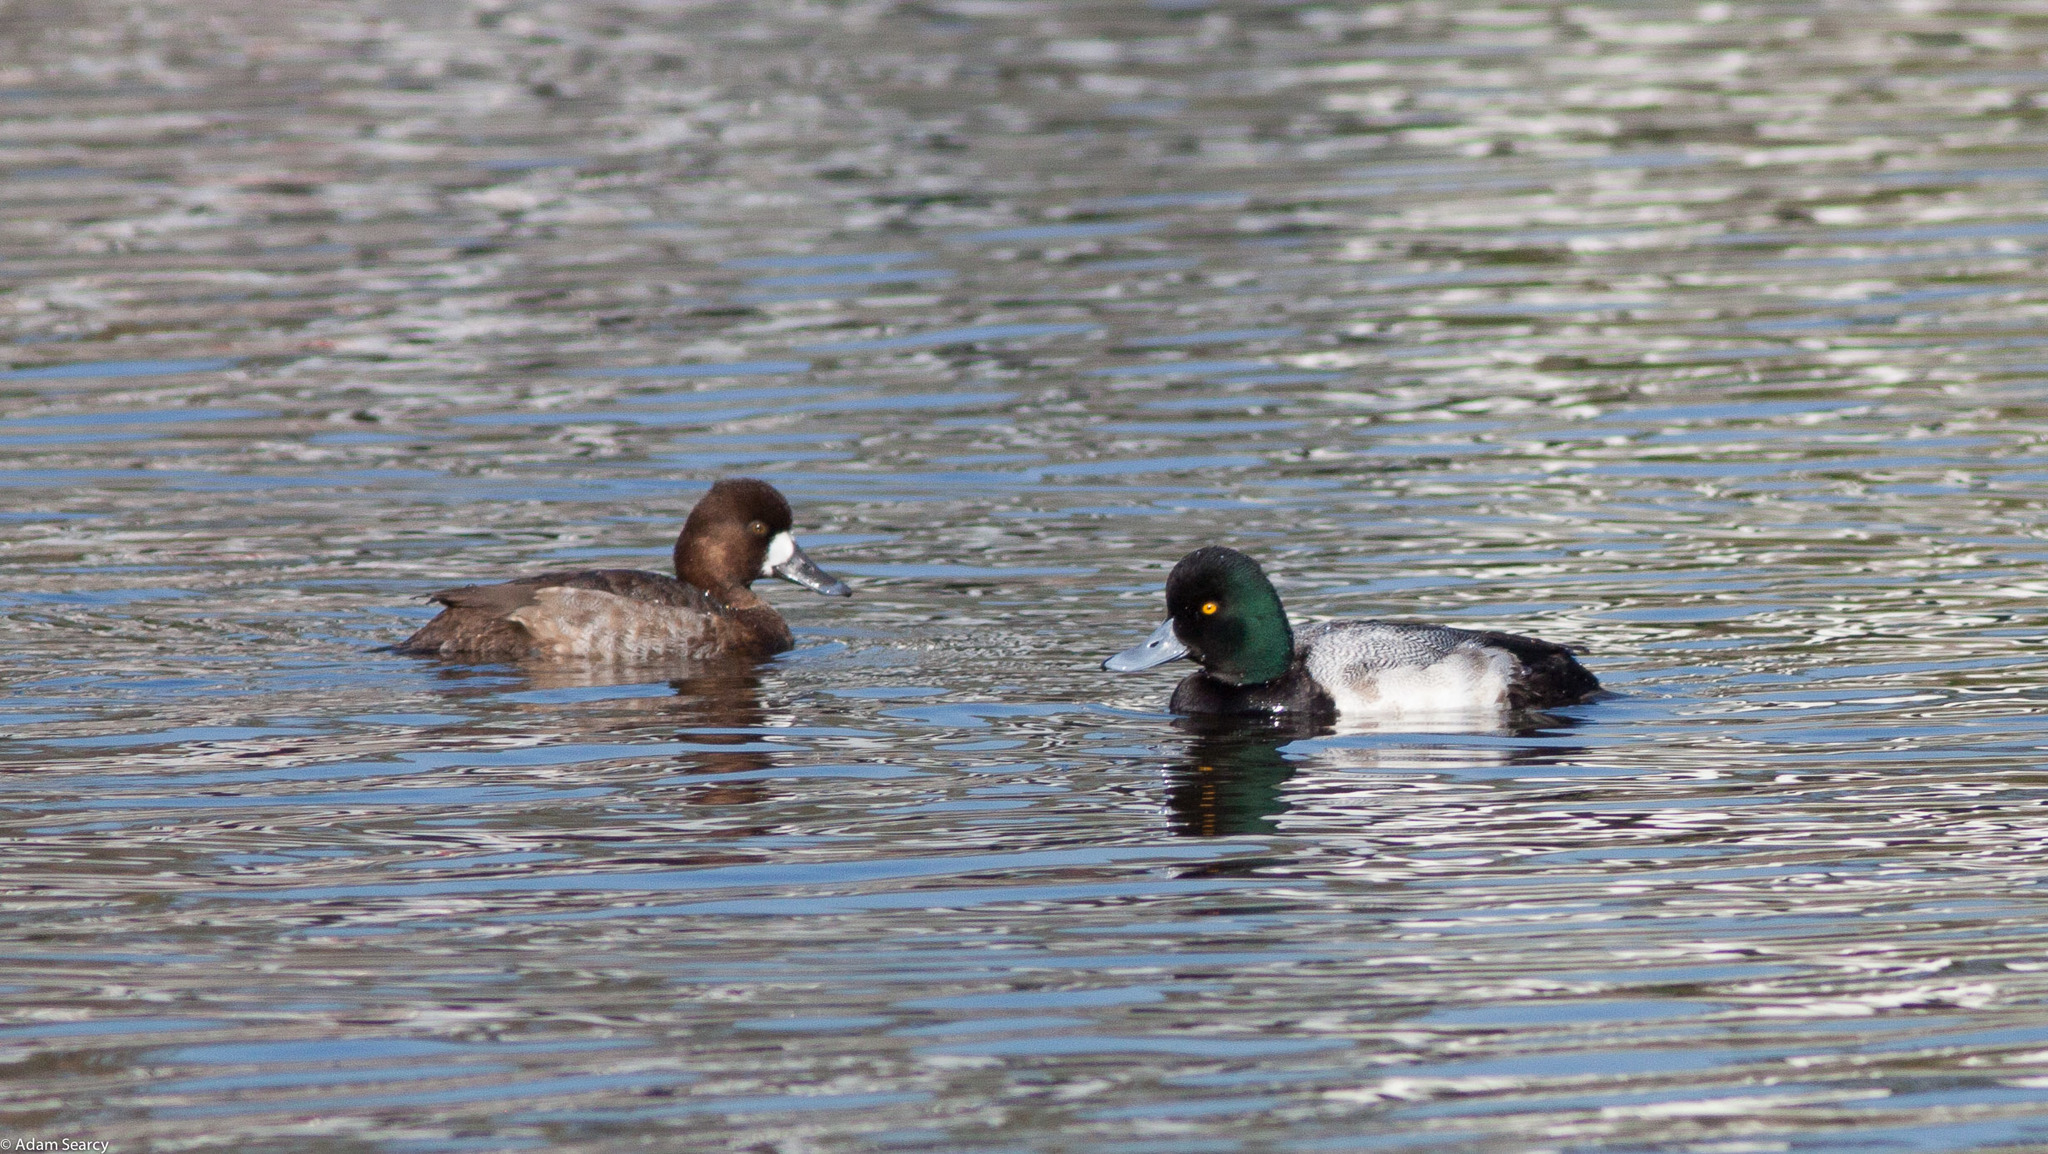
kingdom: Animalia
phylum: Chordata
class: Aves
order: Anseriformes
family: Anatidae
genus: Aythya
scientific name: Aythya affinis
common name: Lesser scaup
